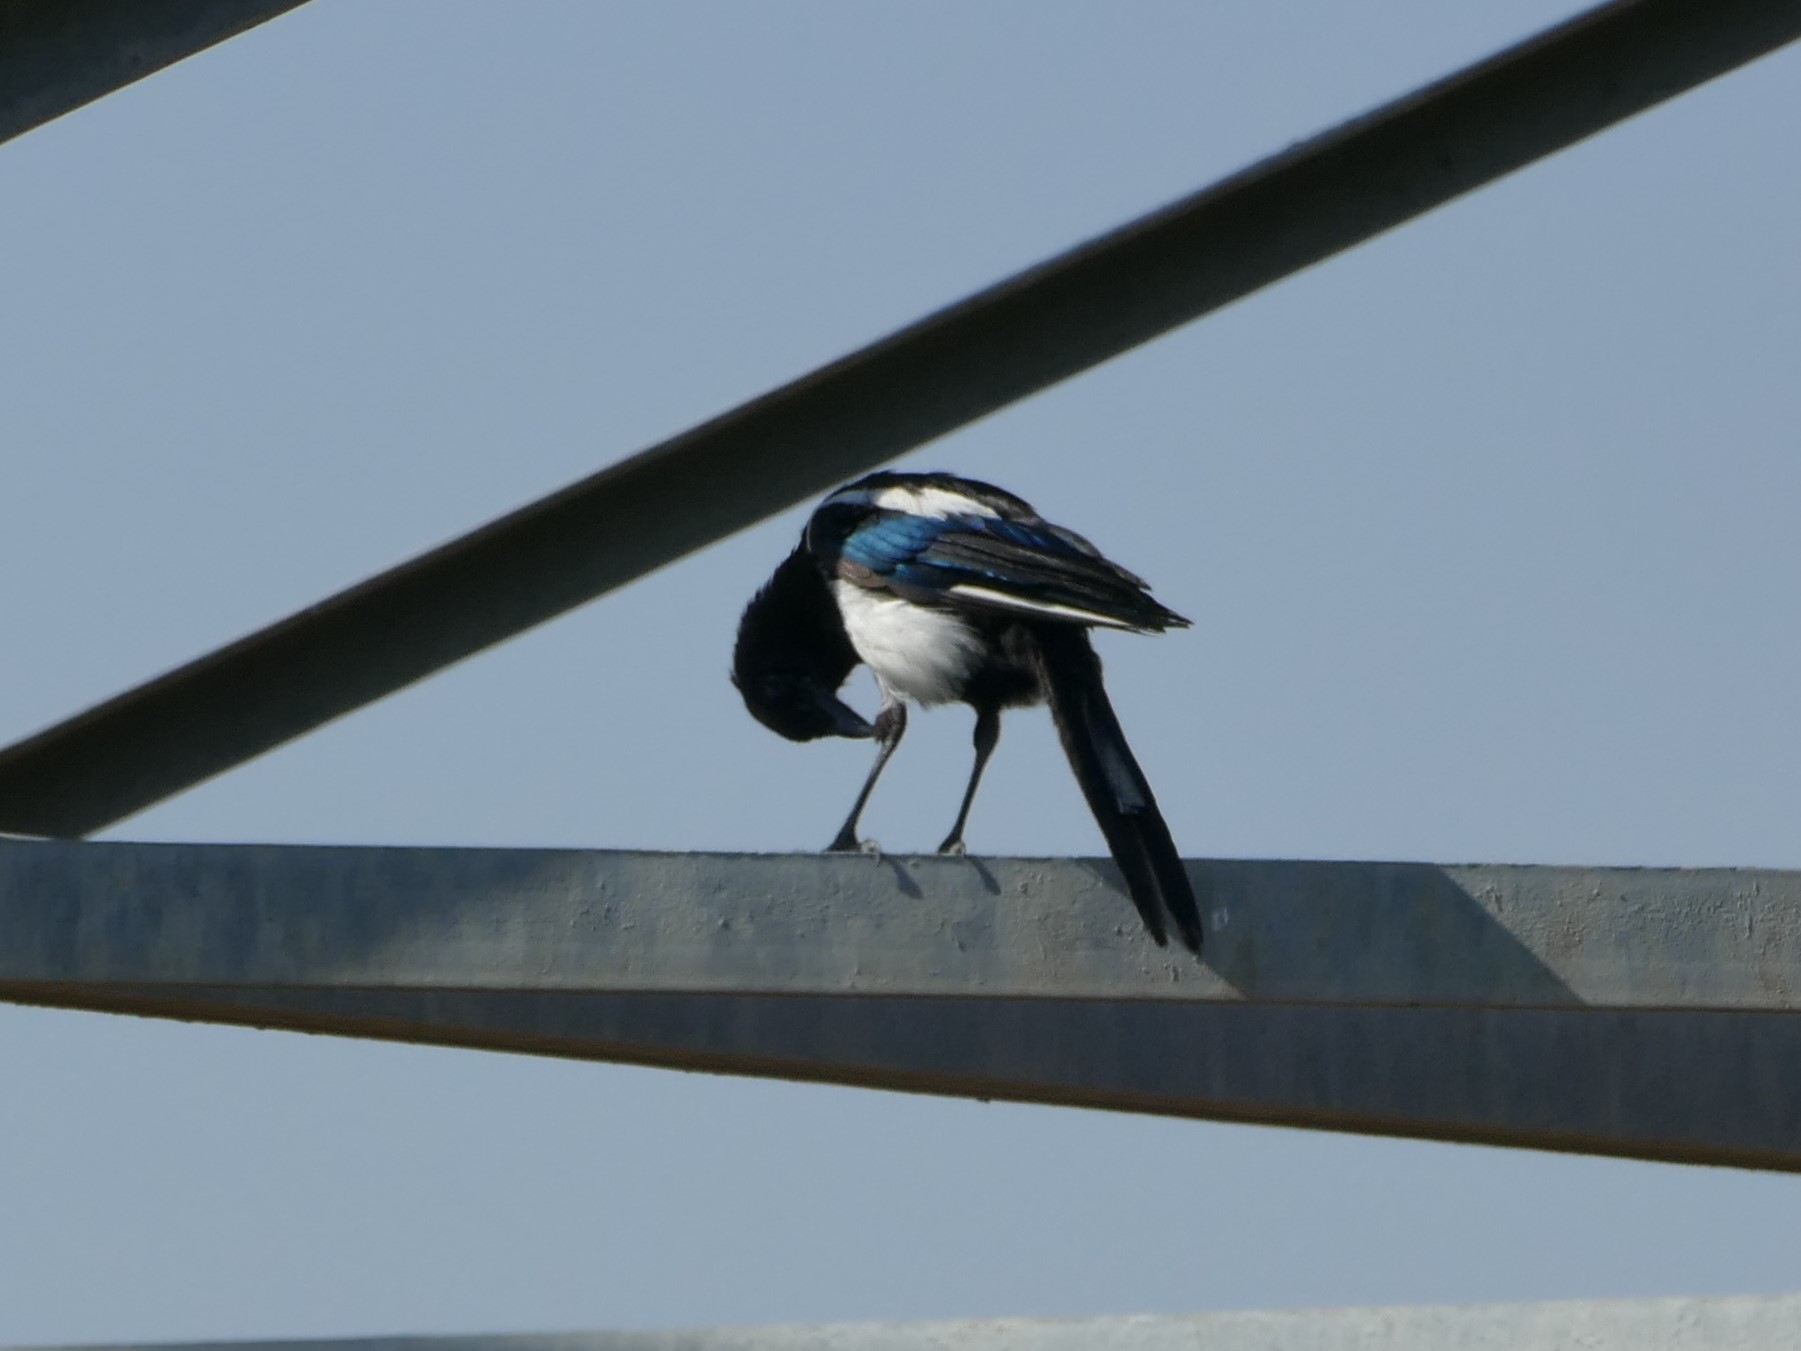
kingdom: Animalia
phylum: Chordata
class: Aves
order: Passeriformes
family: Corvidae
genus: Pica
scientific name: Pica pica
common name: Eurasian magpie
